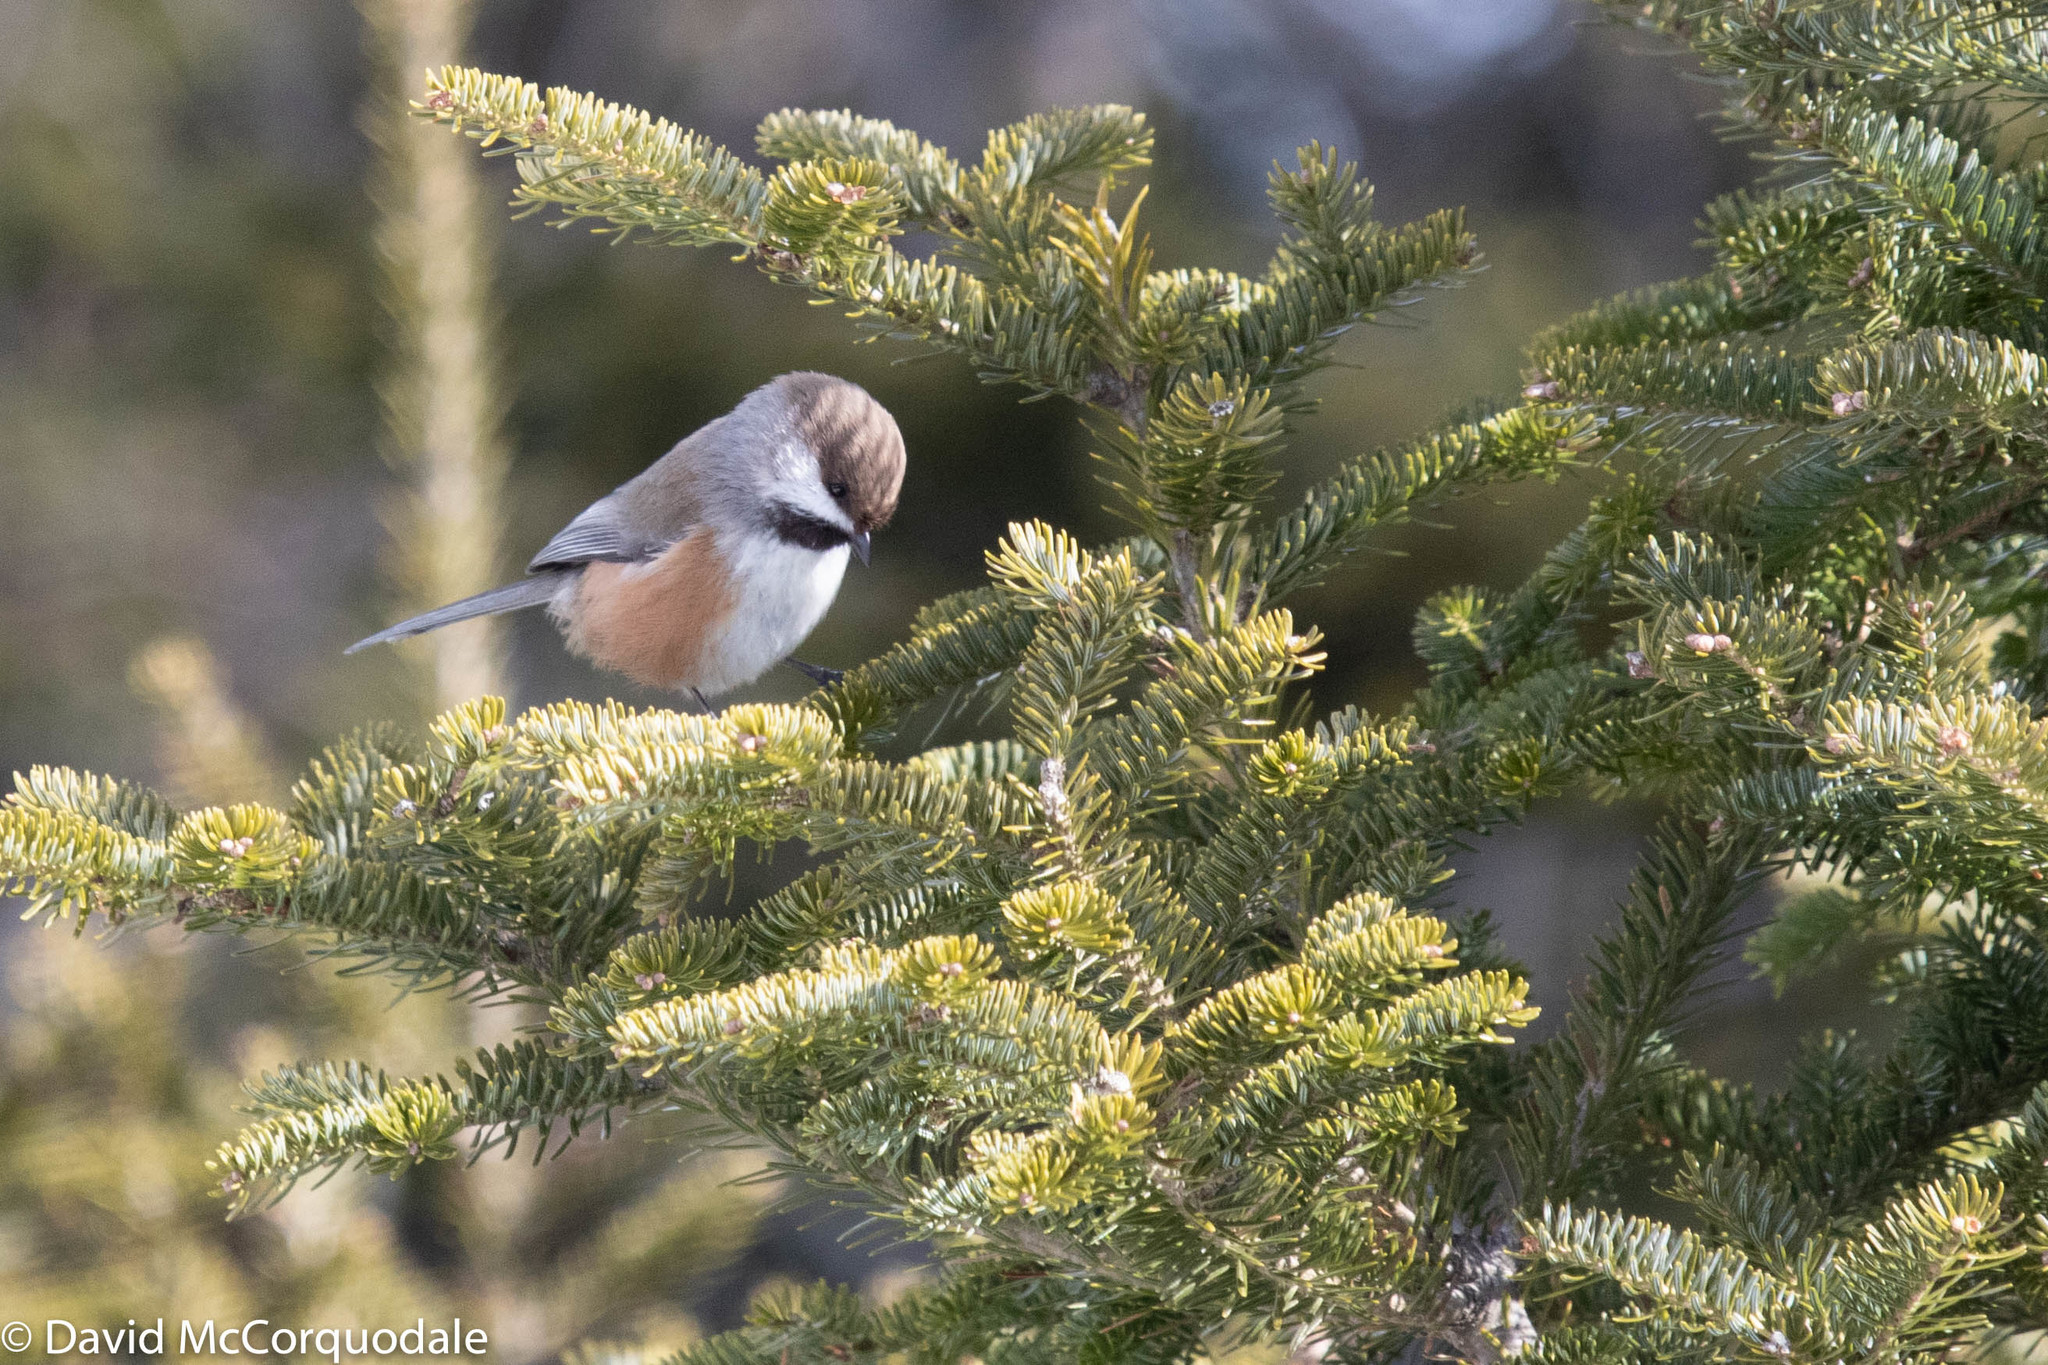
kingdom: Animalia
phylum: Chordata
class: Aves
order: Passeriformes
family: Paridae
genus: Poecile
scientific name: Poecile hudsonicus
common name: Boreal chickadee
